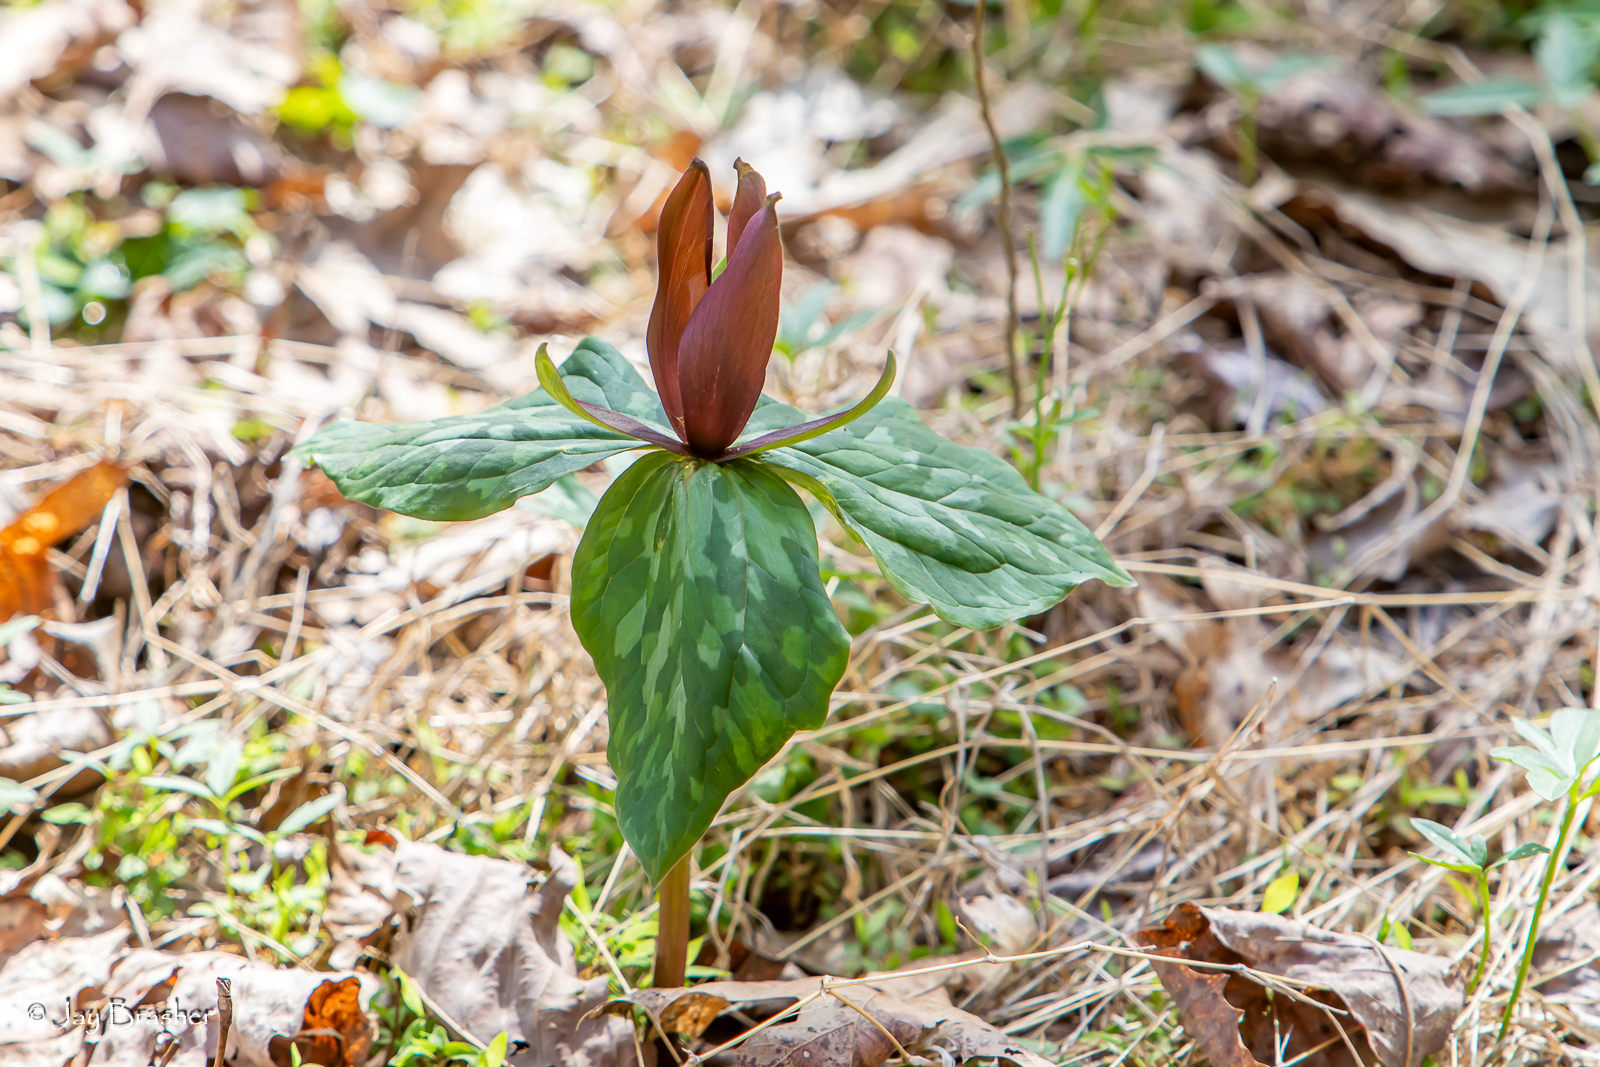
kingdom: Plantae
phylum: Tracheophyta
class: Liliopsida
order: Liliales
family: Melanthiaceae
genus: Trillium
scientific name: Trillium cuneatum
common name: Cuneate trillium
